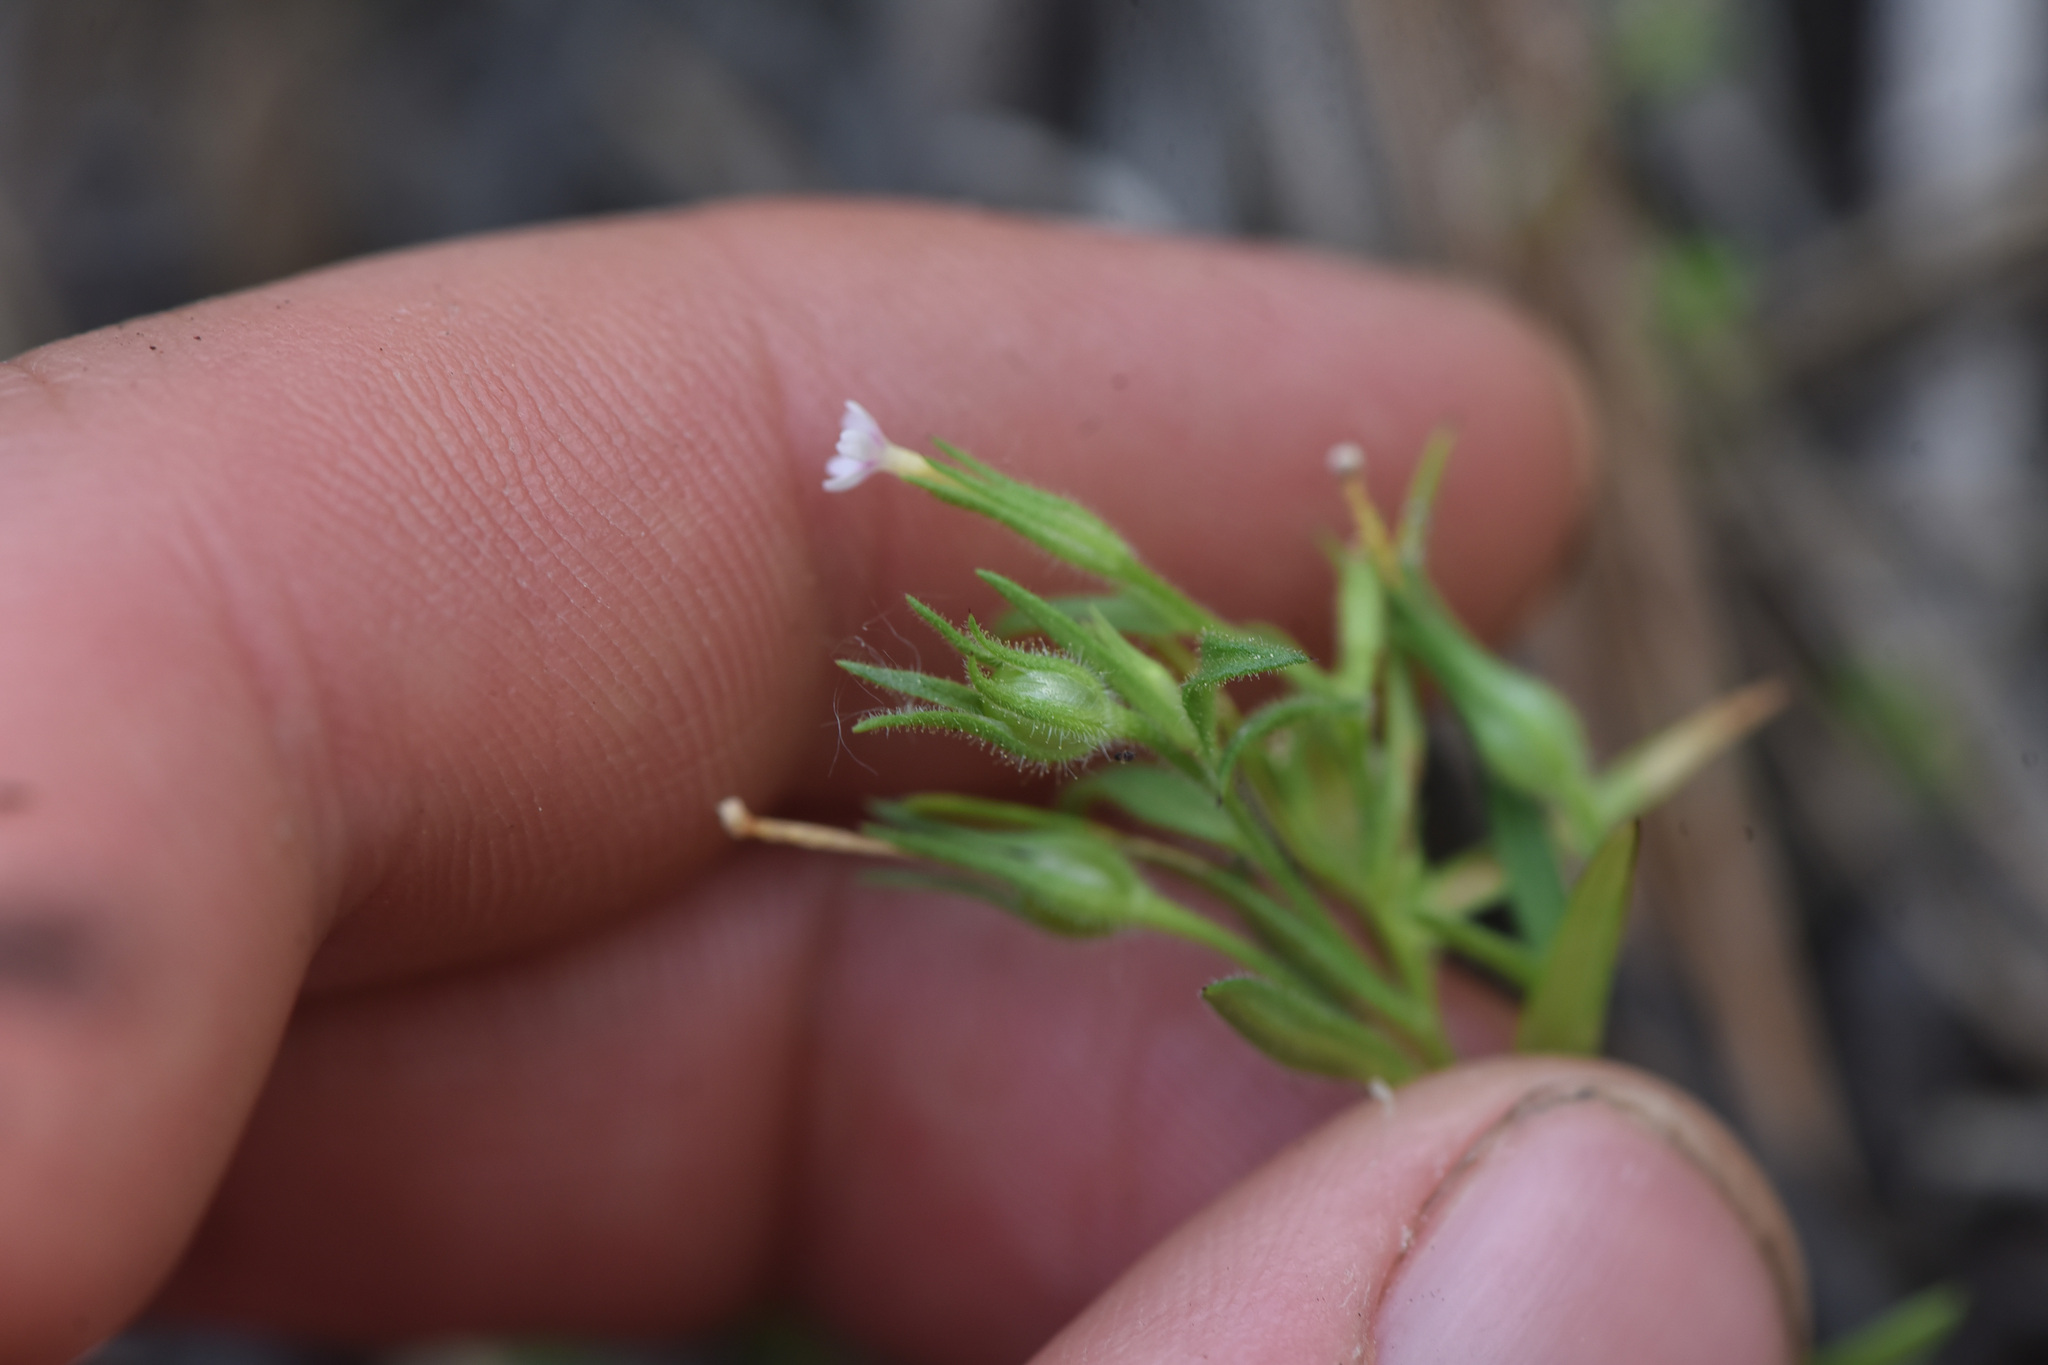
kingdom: Plantae
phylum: Tracheophyta
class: Magnoliopsida
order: Ericales
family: Polemoniaceae
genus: Phlox
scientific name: Phlox gracilis
